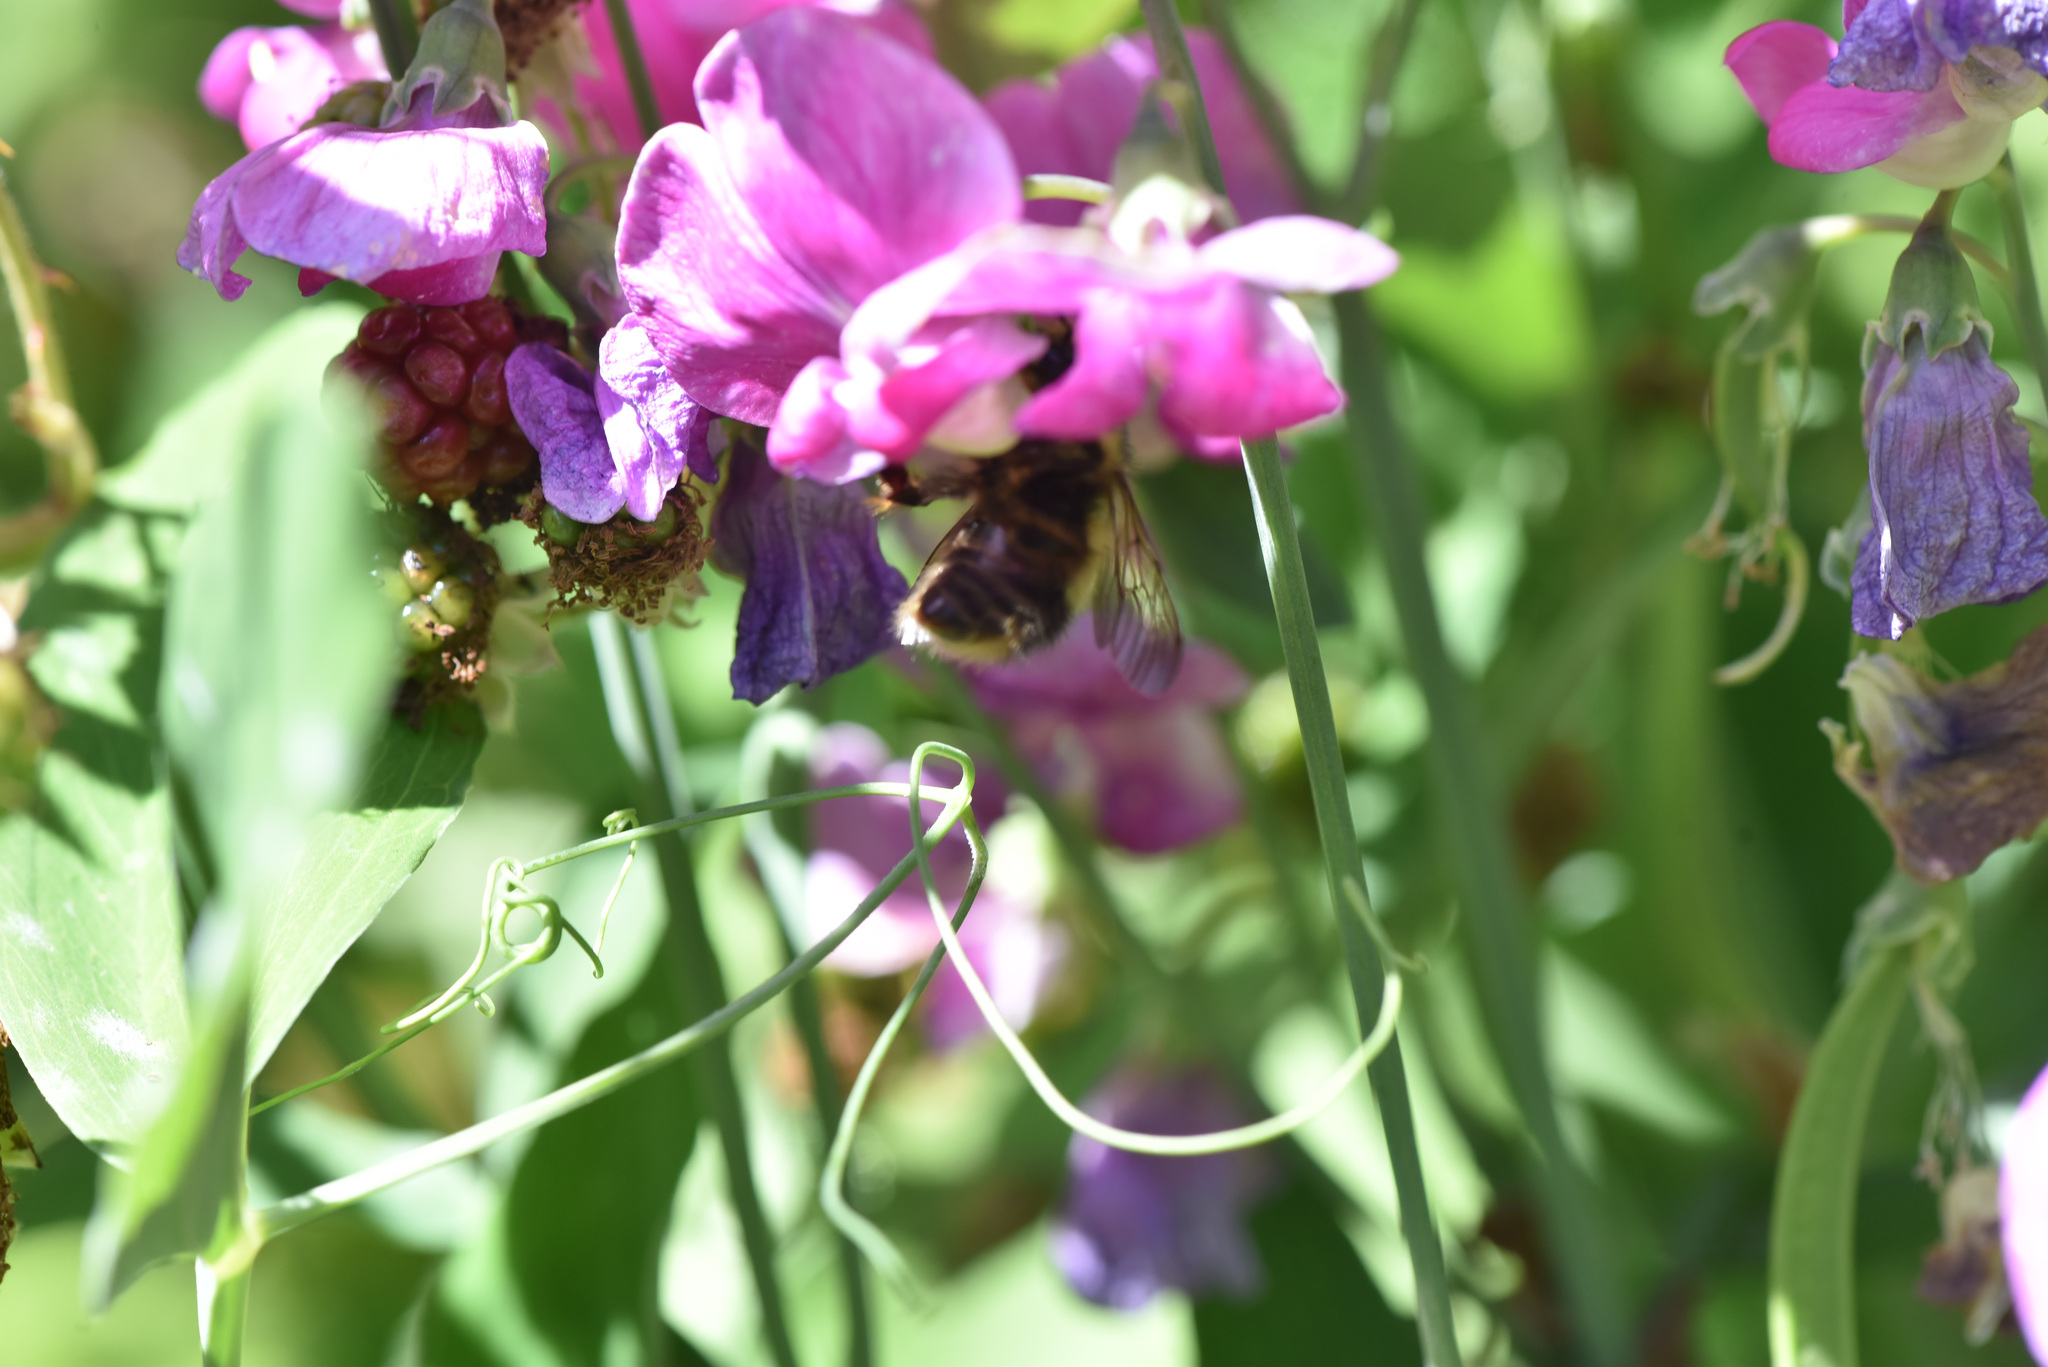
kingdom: Animalia
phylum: Arthropoda
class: Insecta
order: Hymenoptera
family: Apidae
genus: Bombus
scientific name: Bombus flavifrons
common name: Yellow head bumble bee
